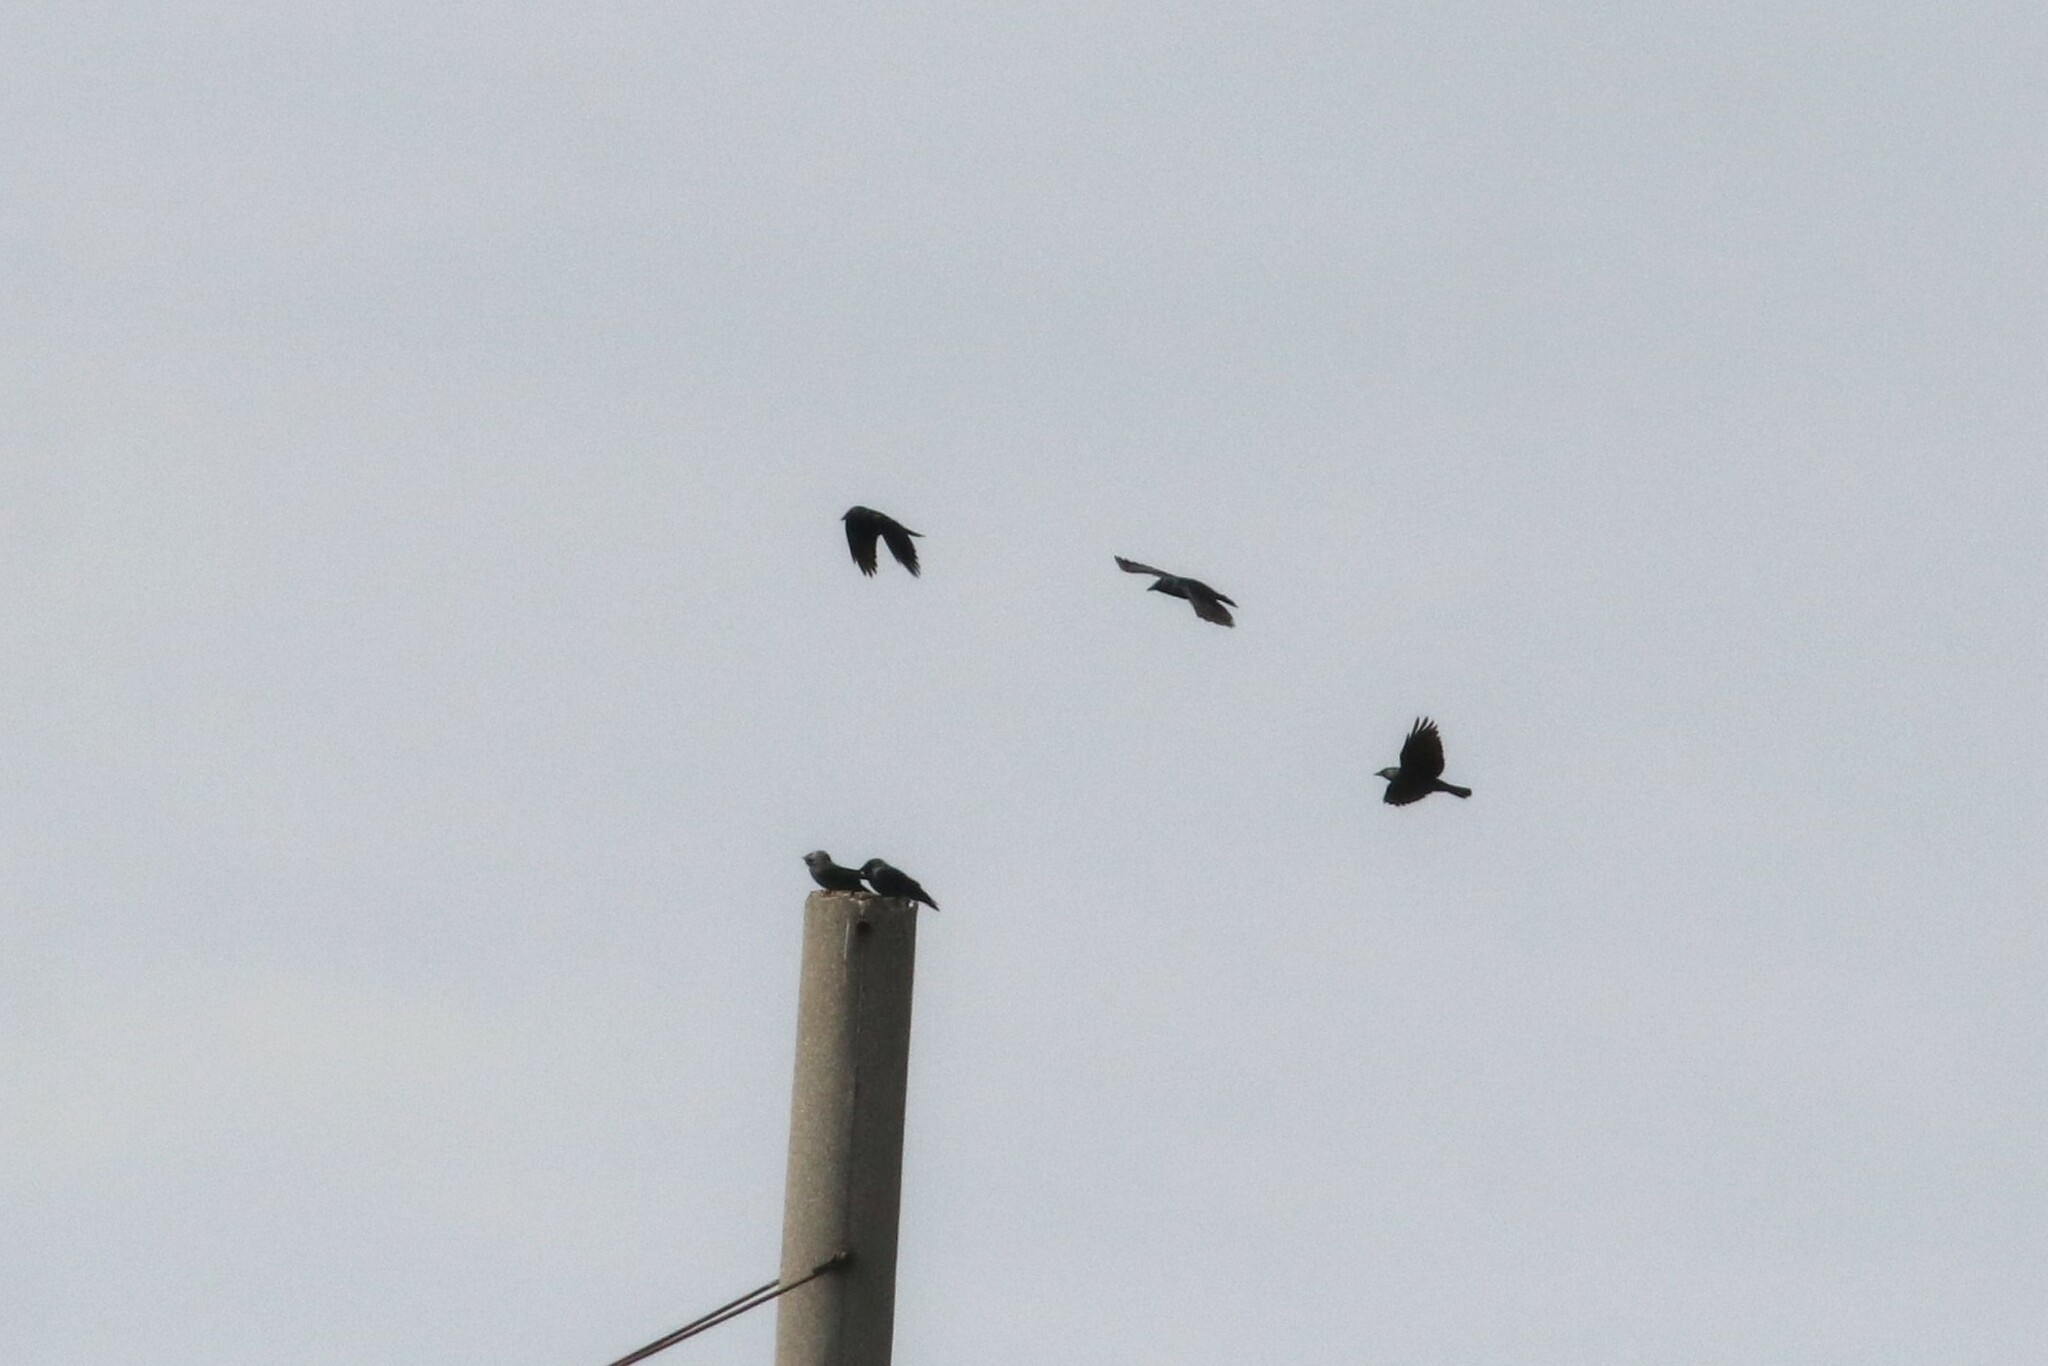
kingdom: Animalia
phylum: Chordata
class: Aves
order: Passeriformes
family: Corvidae
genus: Coloeus
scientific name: Coloeus monedula
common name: Western jackdaw
